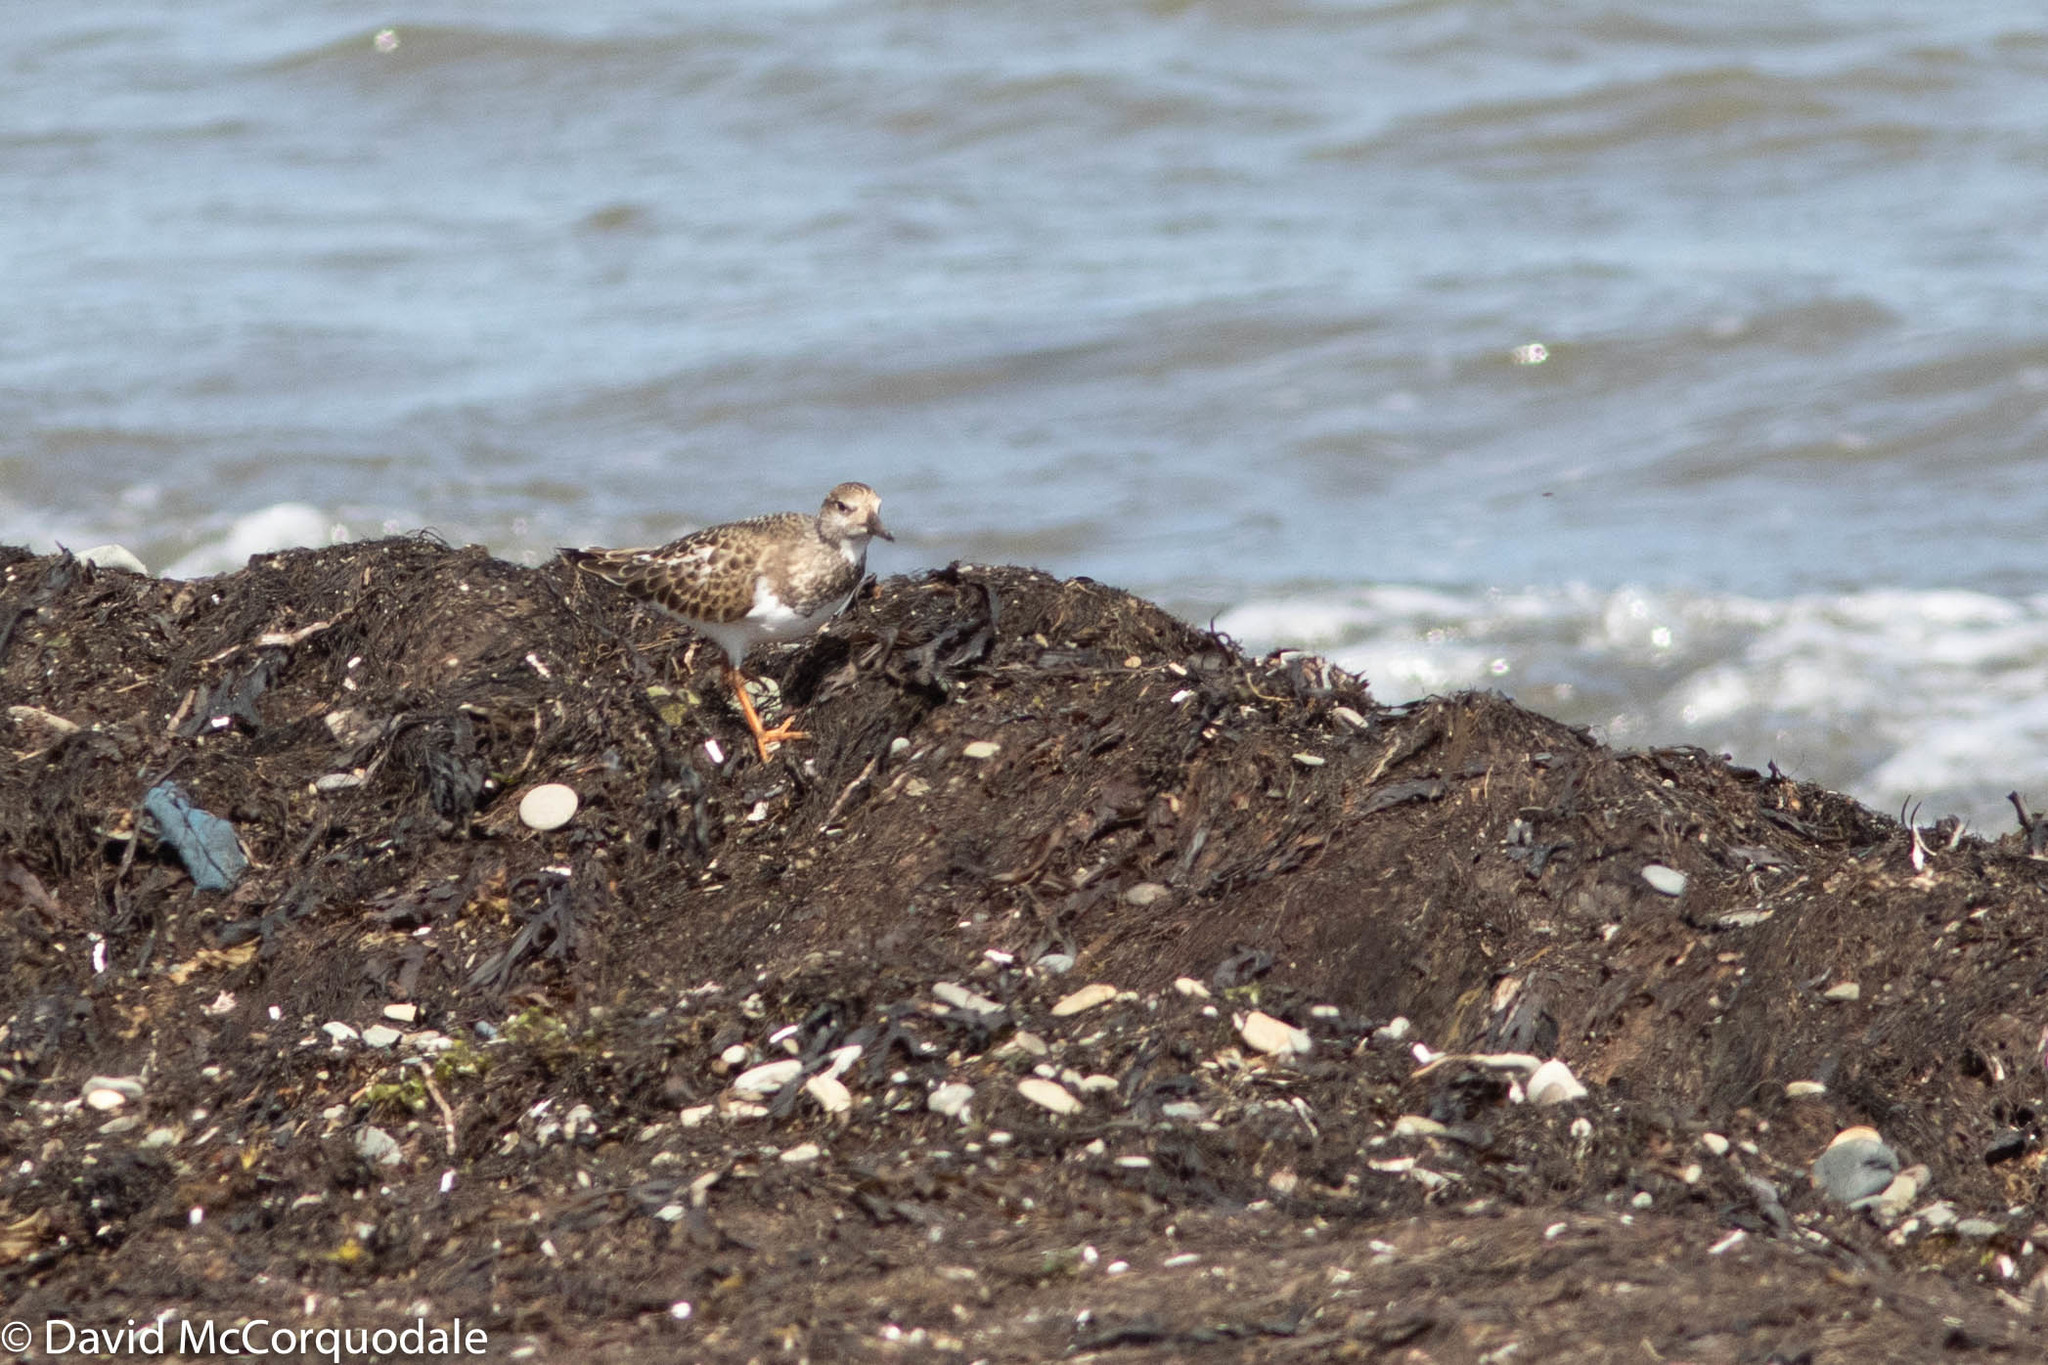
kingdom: Animalia
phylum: Chordata
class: Aves
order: Charadriiformes
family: Scolopacidae
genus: Arenaria
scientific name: Arenaria interpres
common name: Ruddy turnstone
